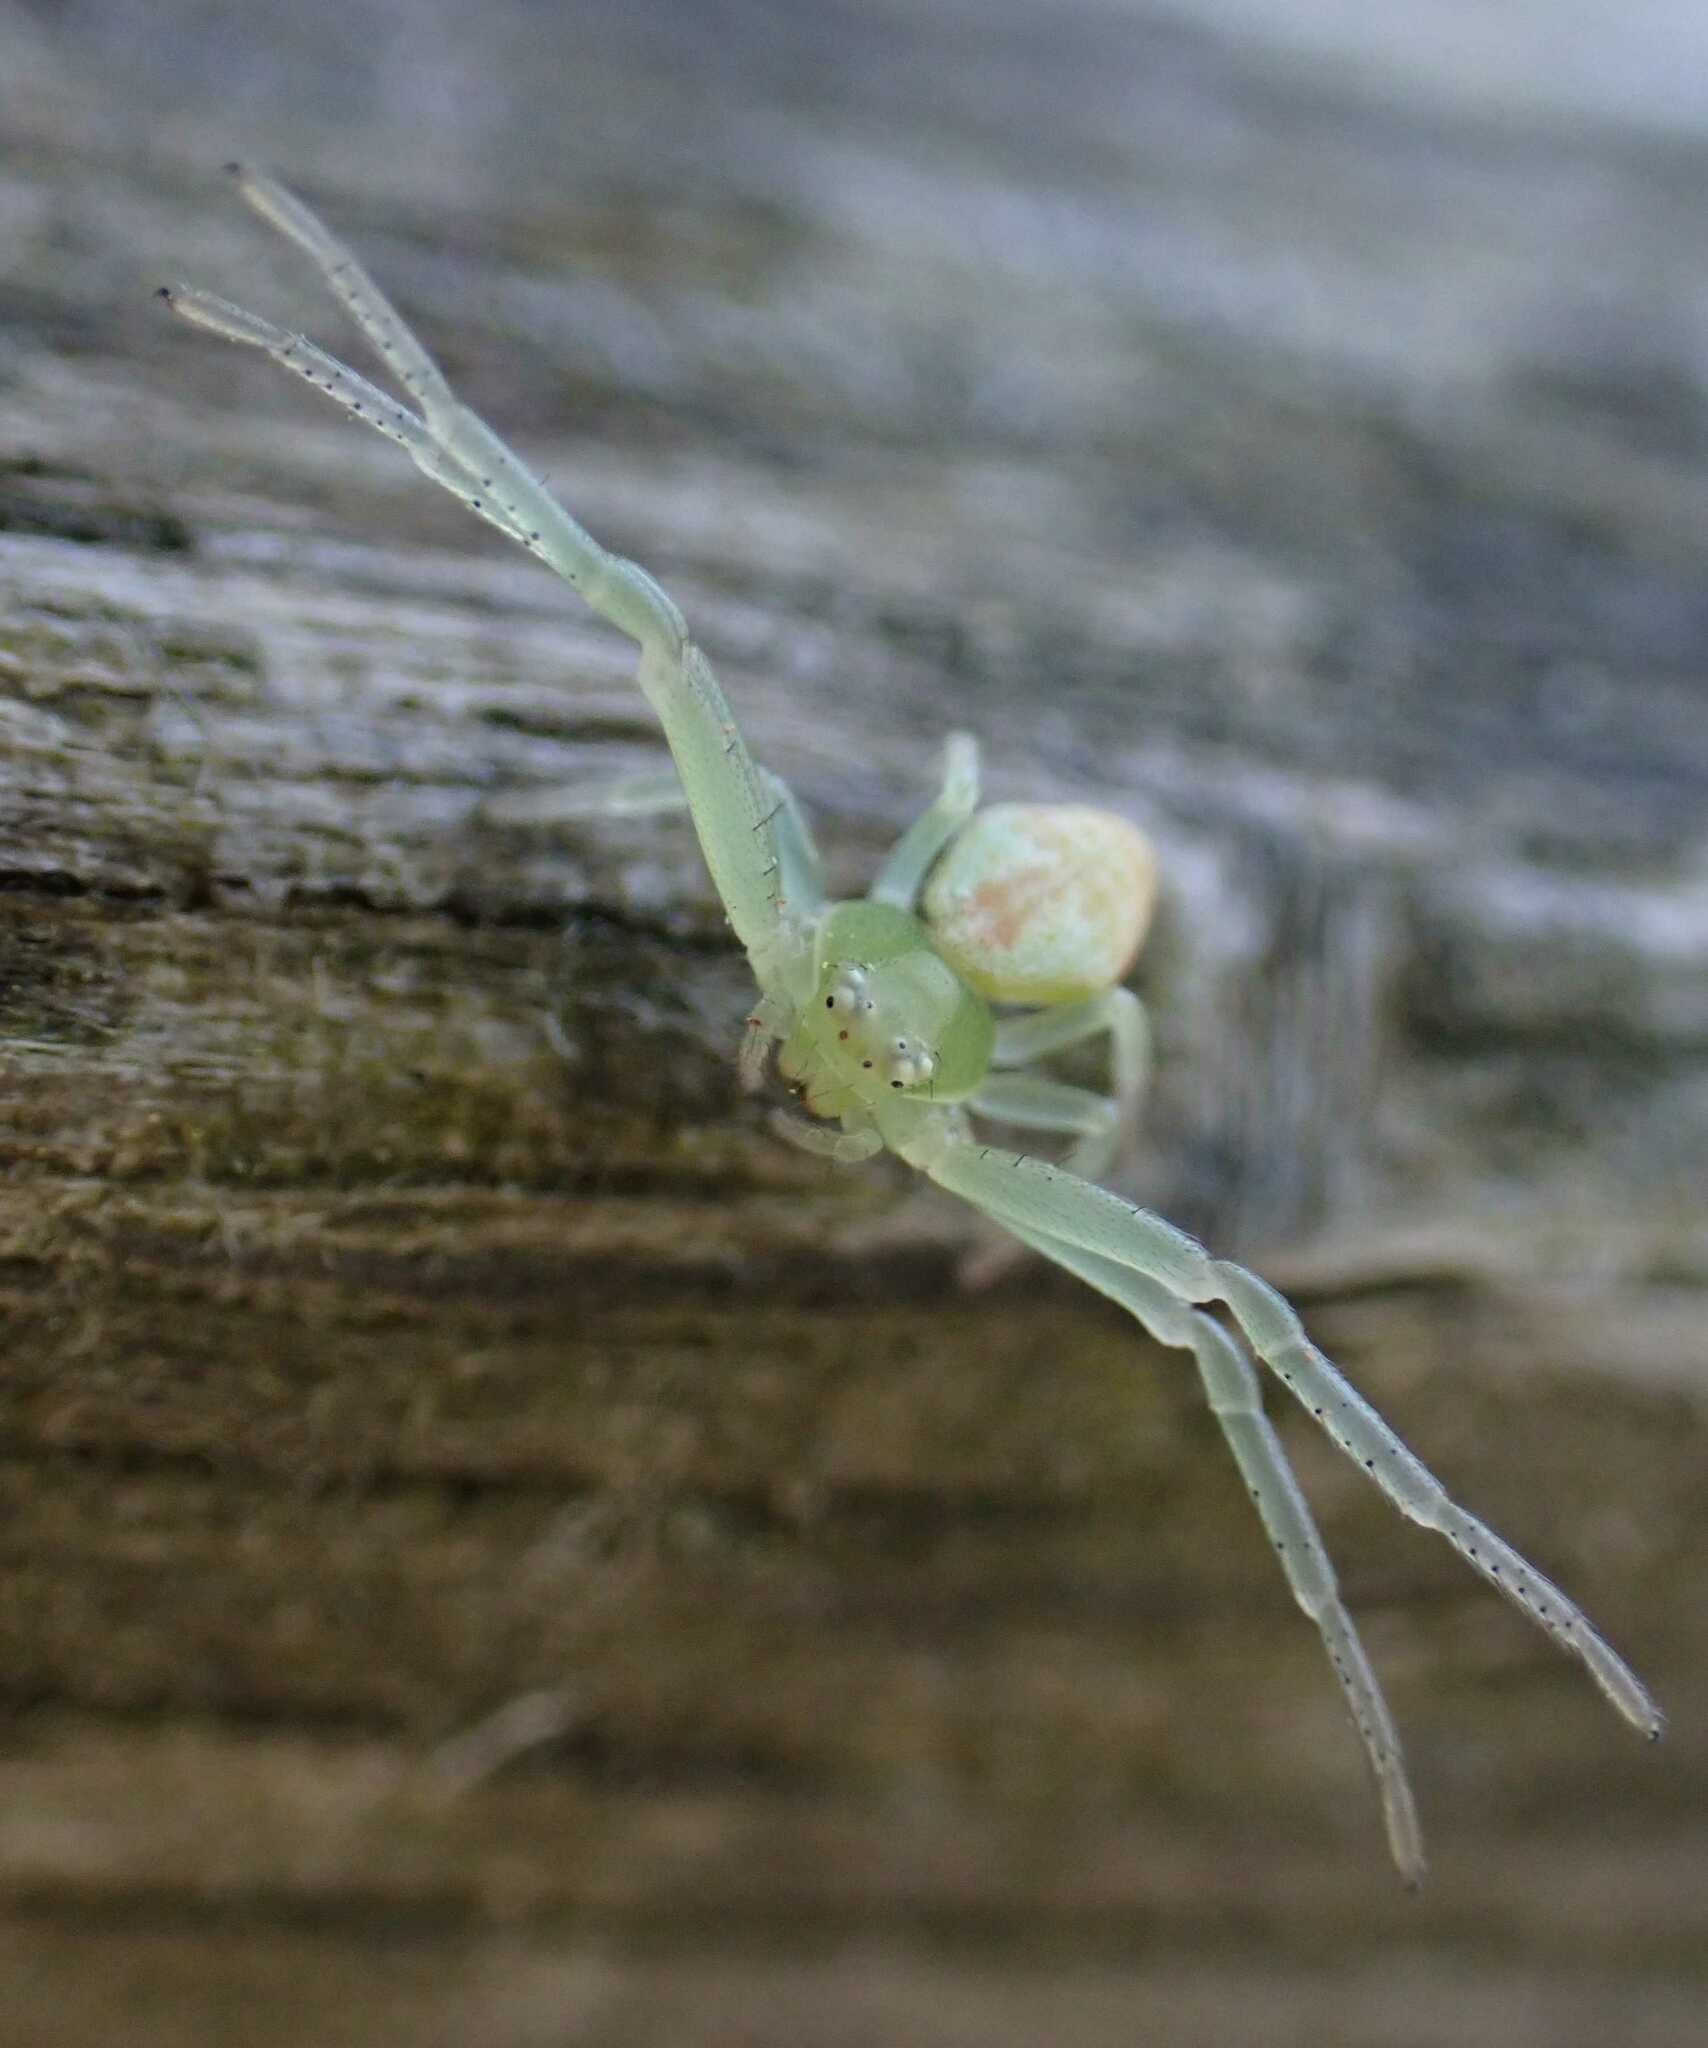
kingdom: Animalia
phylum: Arthropoda
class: Arachnida
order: Araneae
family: Thomisidae
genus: Ebrechtella
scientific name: Ebrechtella tricuspidata
